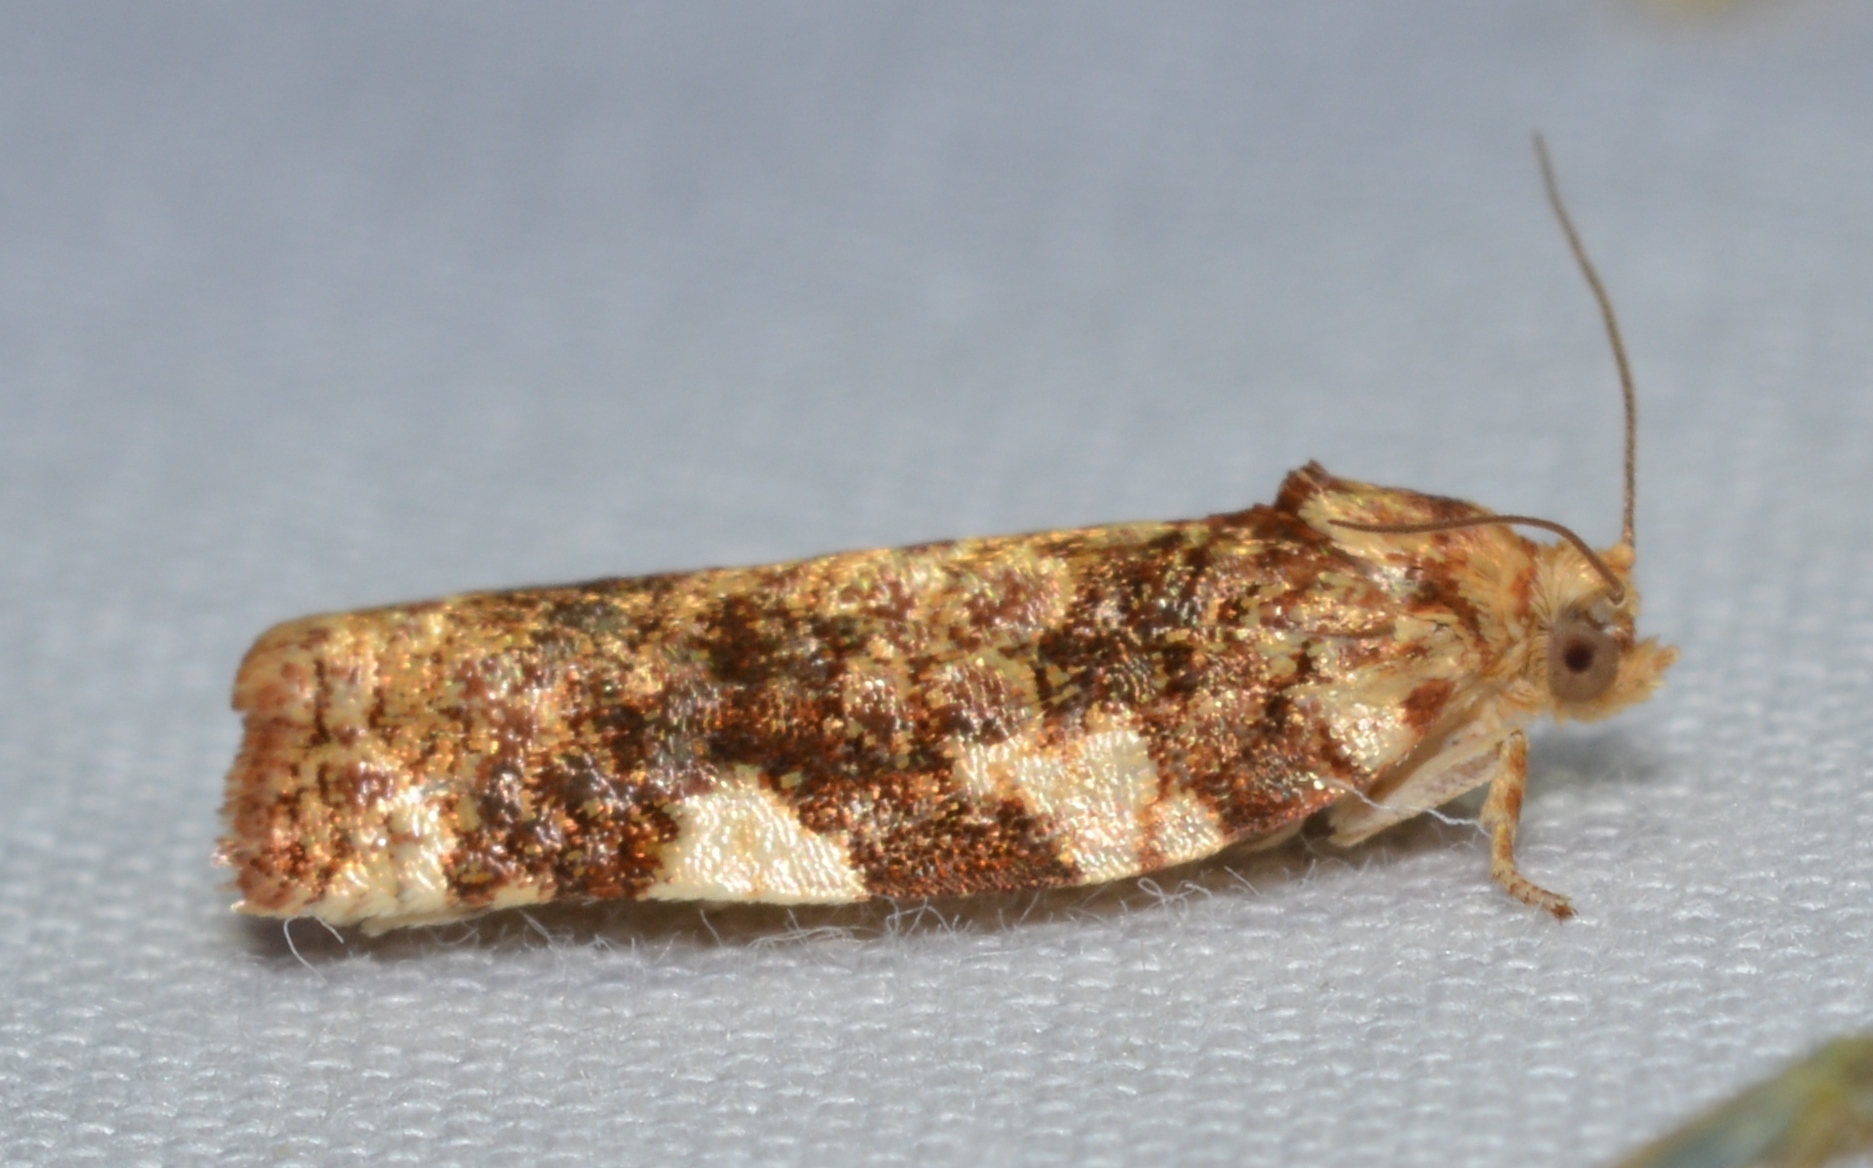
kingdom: Animalia
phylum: Arthropoda
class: Insecta
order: Lepidoptera
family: Tortricidae
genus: Archips
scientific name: Archips argyrospila
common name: Fruit-tree leafroller moth
